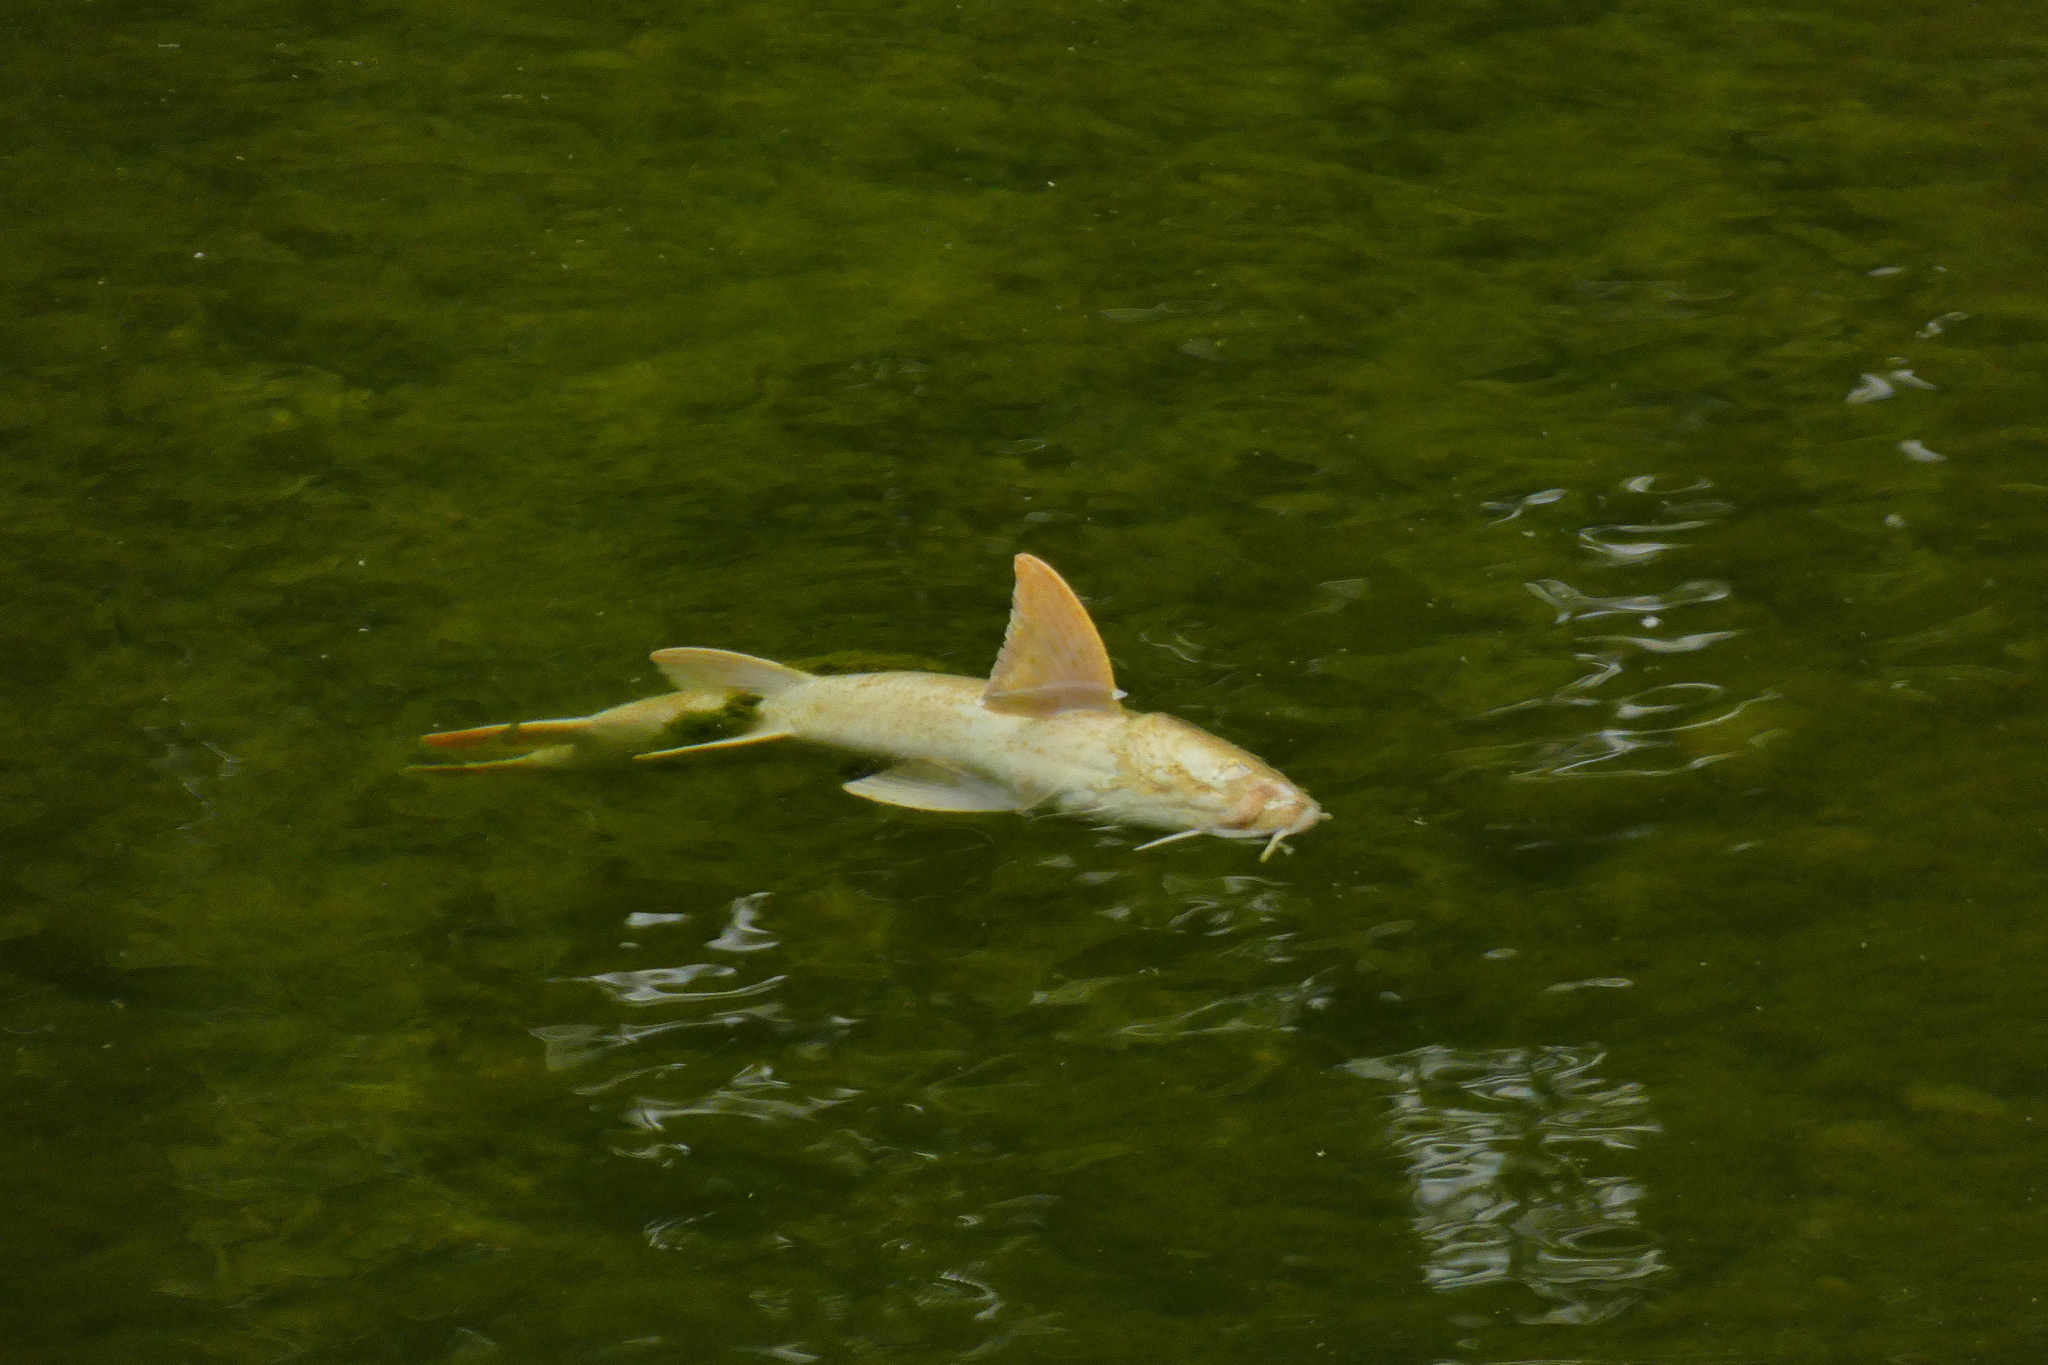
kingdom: Animalia
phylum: Chordata
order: Cypriniformes
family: Cyprinidae
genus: Barbus
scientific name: Barbus barbus
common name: Barbel
